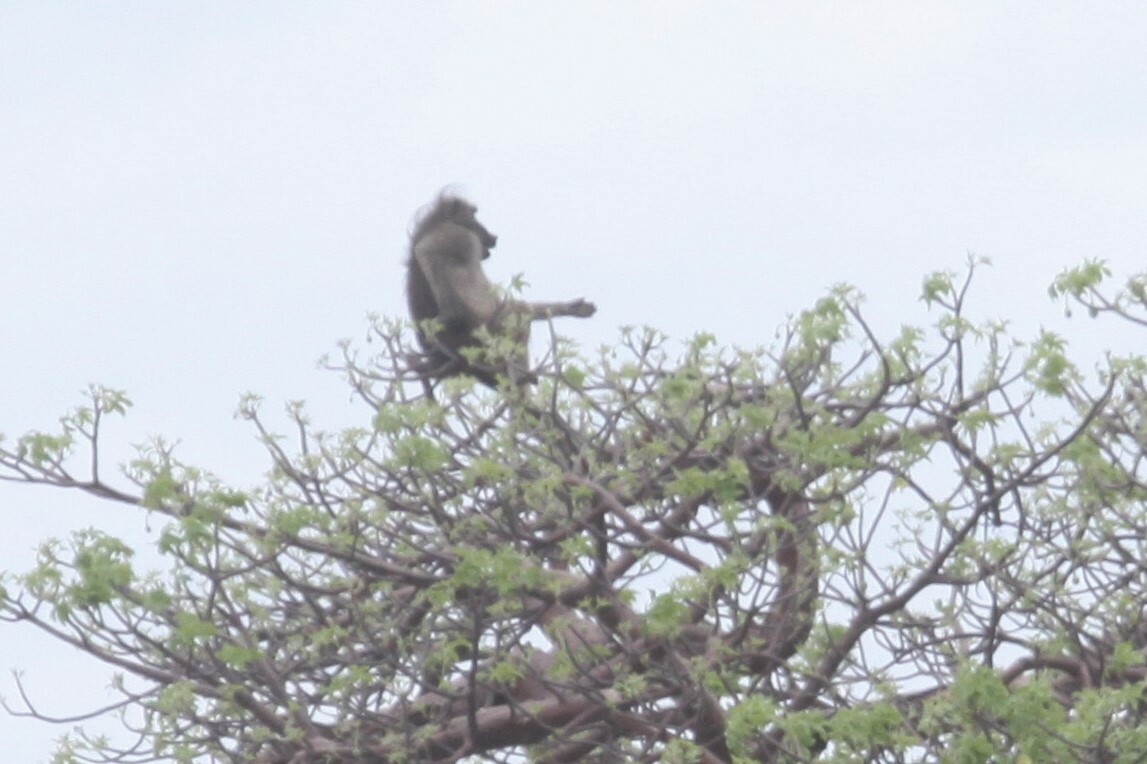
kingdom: Animalia
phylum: Chordata
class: Mammalia
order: Primates
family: Cercopithecidae
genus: Papio
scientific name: Papio ursinus
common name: Chacma baboon
